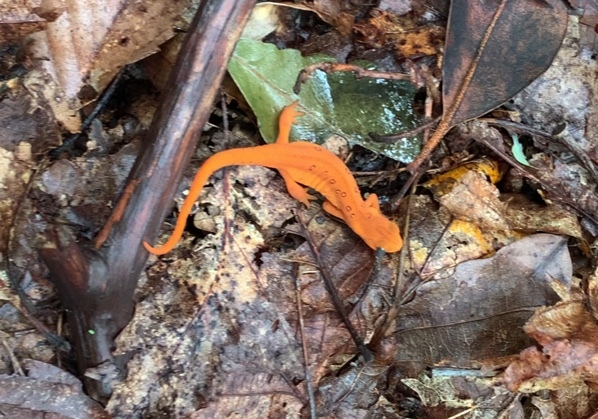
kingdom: Animalia
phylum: Chordata
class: Amphibia
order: Caudata
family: Salamandridae
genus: Notophthalmus
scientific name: Notophthalmus viridescens
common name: Eastern newt
